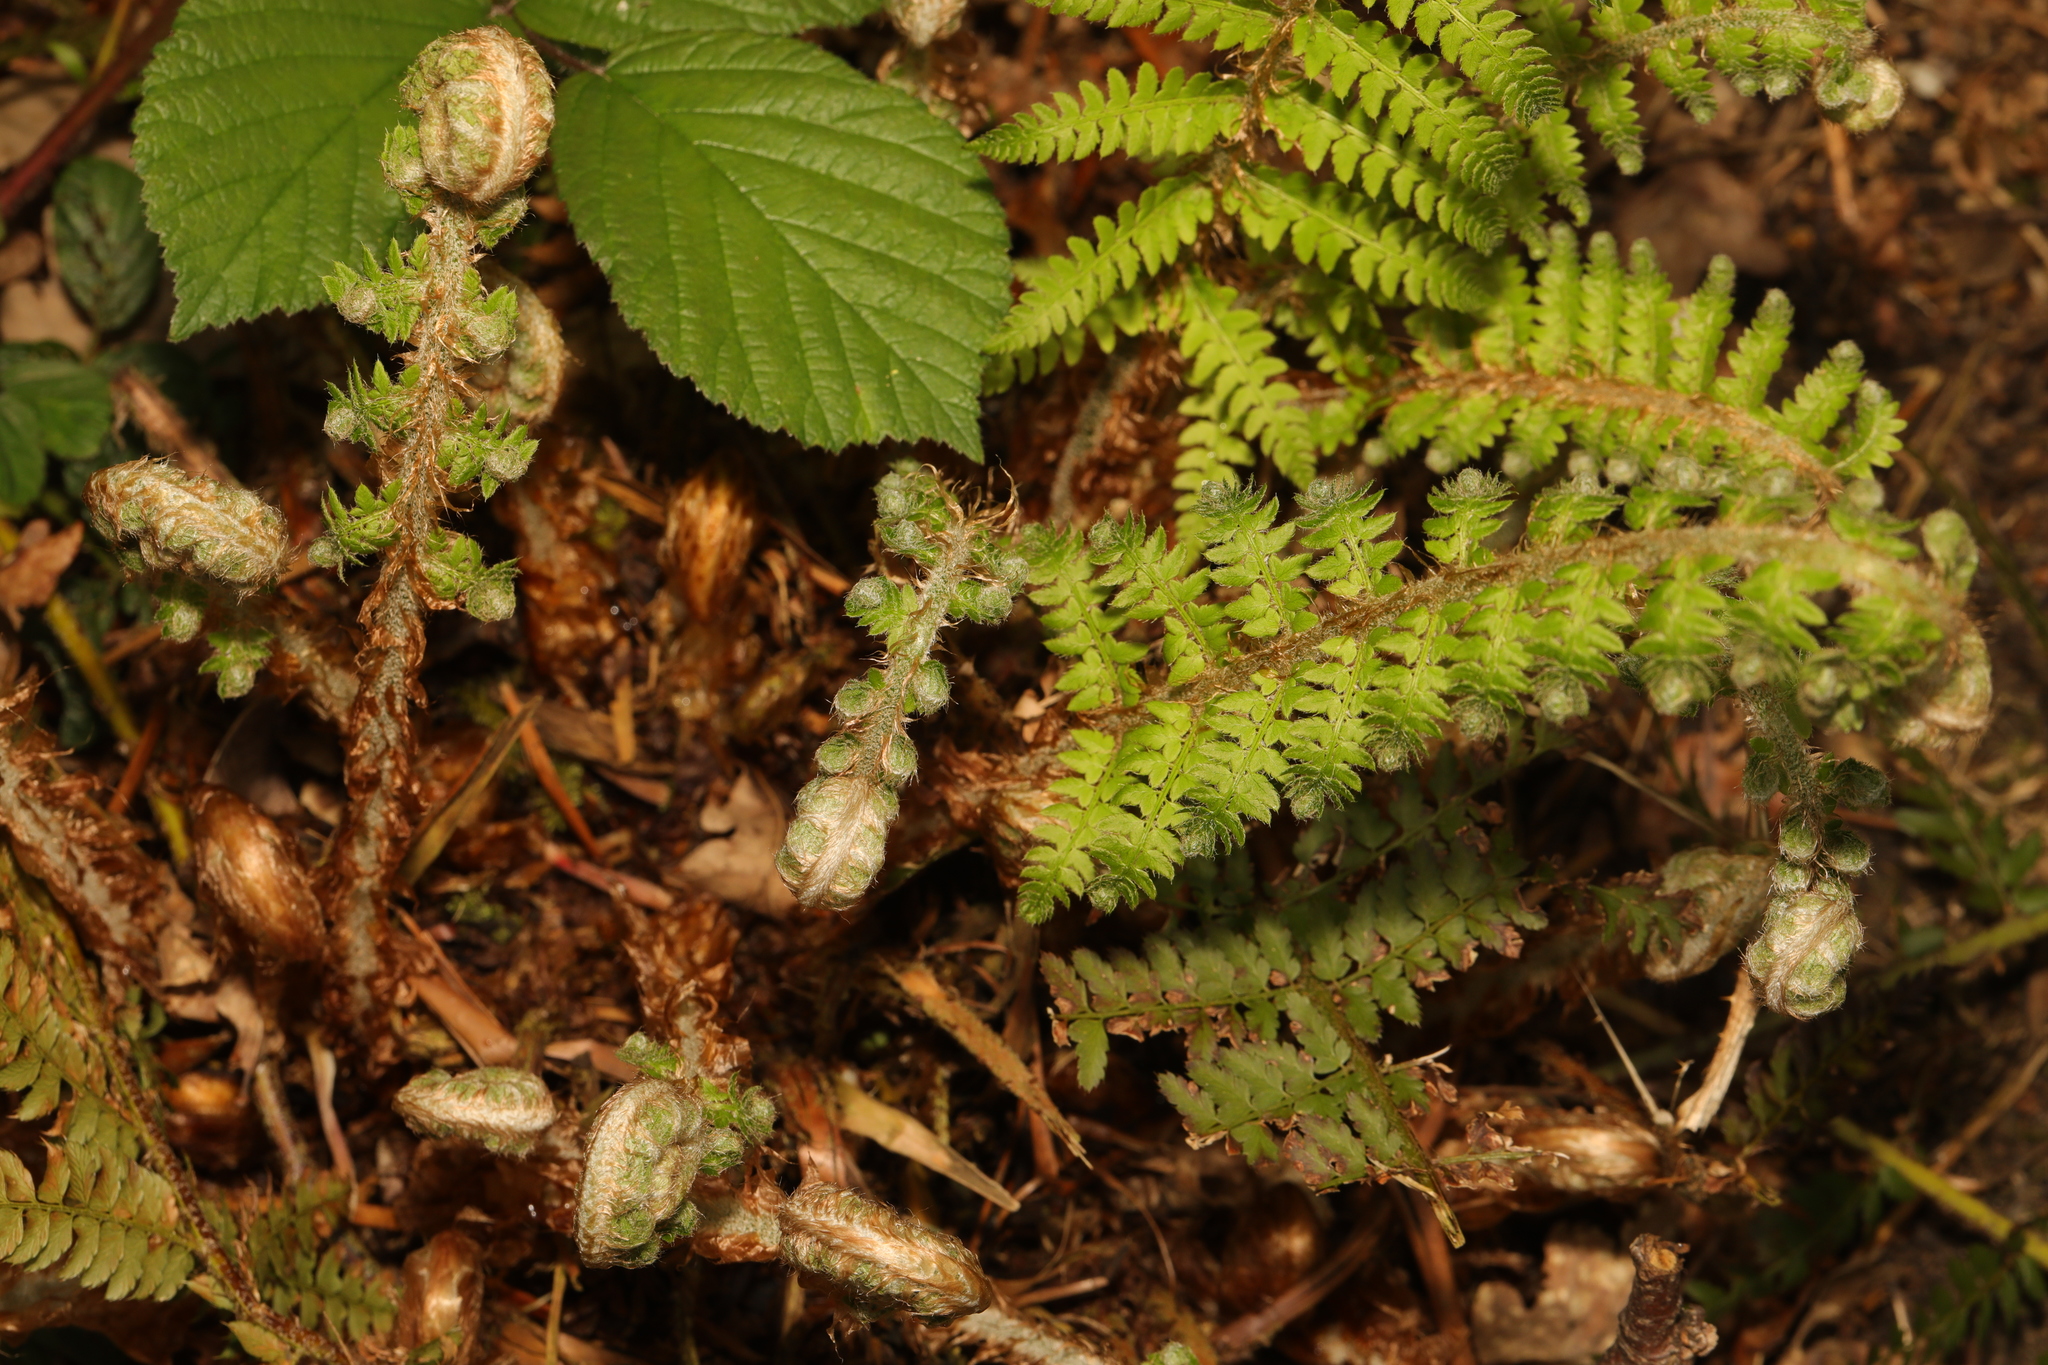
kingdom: Plantae
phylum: Tracheophyta
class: Polypodiopsida
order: Polypodiales
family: Dryopteridaceae
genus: Polystichum
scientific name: Polystichum setiferum
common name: Soft shield-fern
